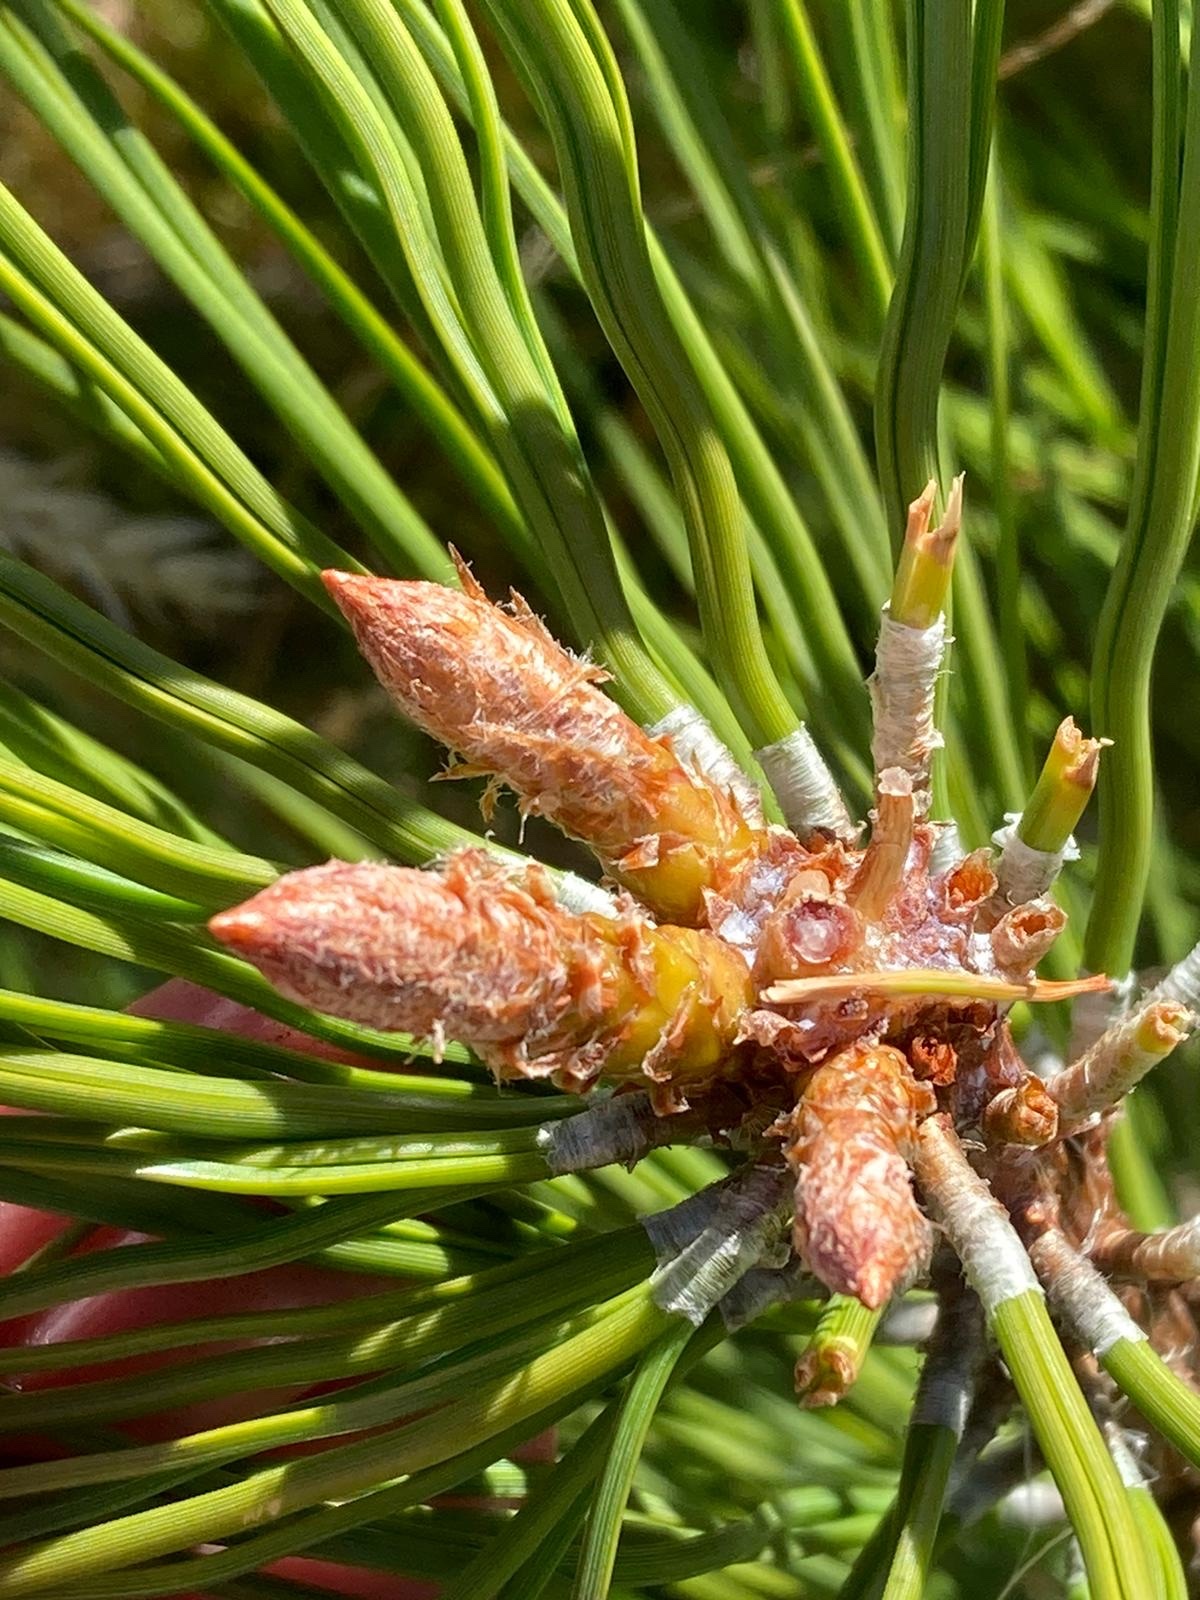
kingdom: Plantae
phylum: Tracheophyta
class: Pinopsida
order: Pinales
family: Pinaceae
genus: Pinus
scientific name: Pinus ponderosa
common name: Western yellow-pine
